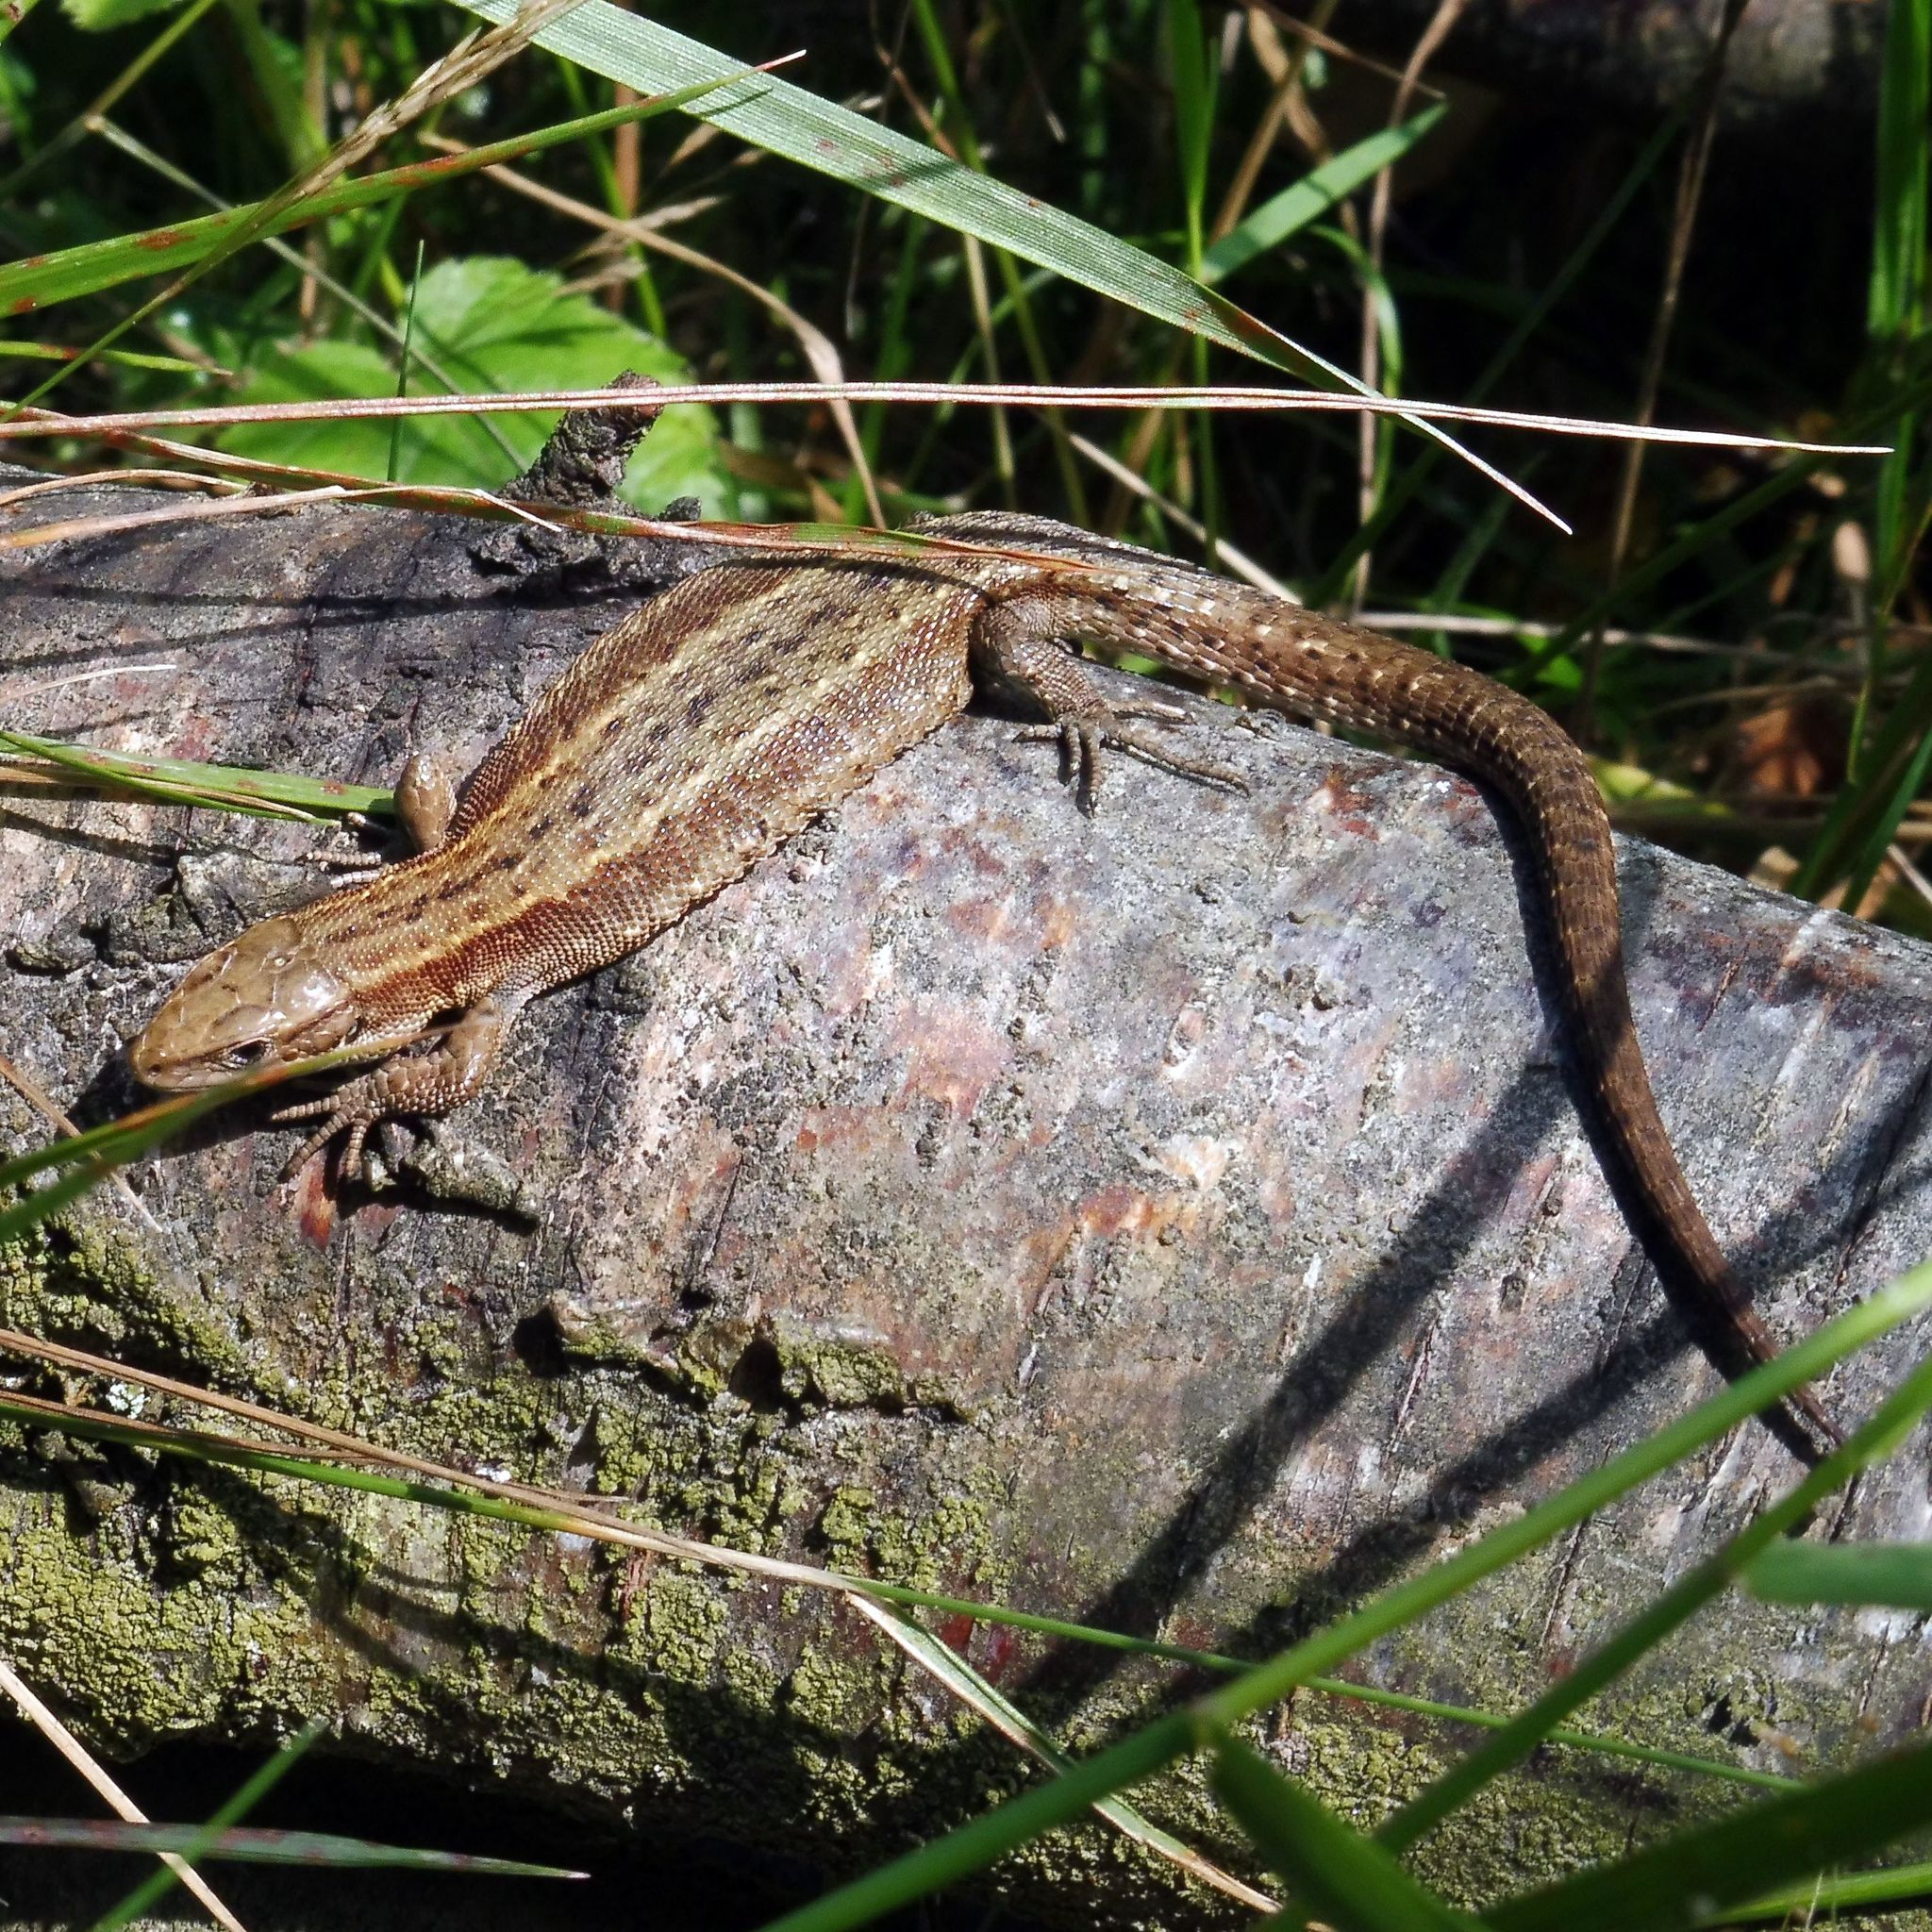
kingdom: Animalia
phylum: Chordata
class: Squamata
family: Lacertidae
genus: Zootoca
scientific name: Zootoca vivipara
